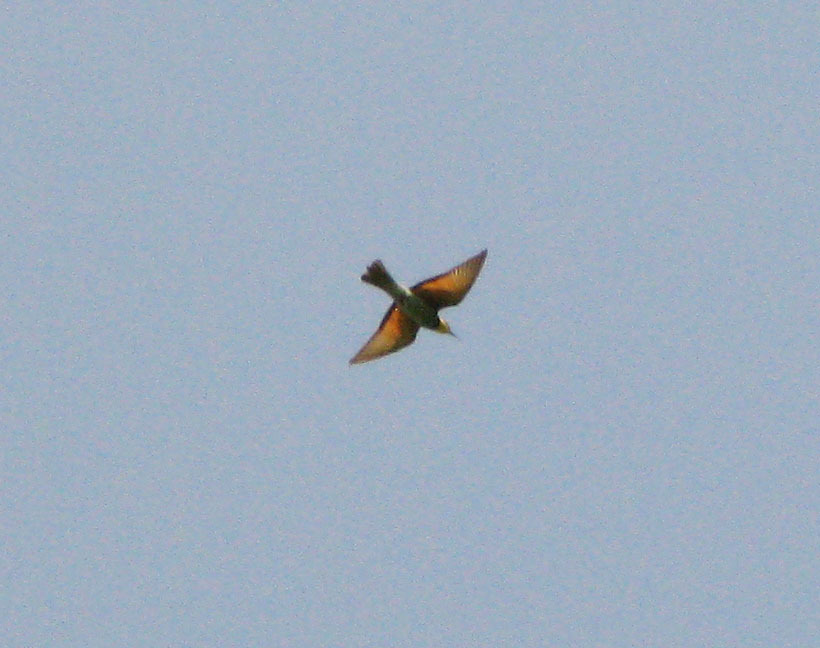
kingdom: Animalia
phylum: Chordata
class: Aves
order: Coraciiformes
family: Meropidae
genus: Merops
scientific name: Merops apiaster
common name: European bee-eater
